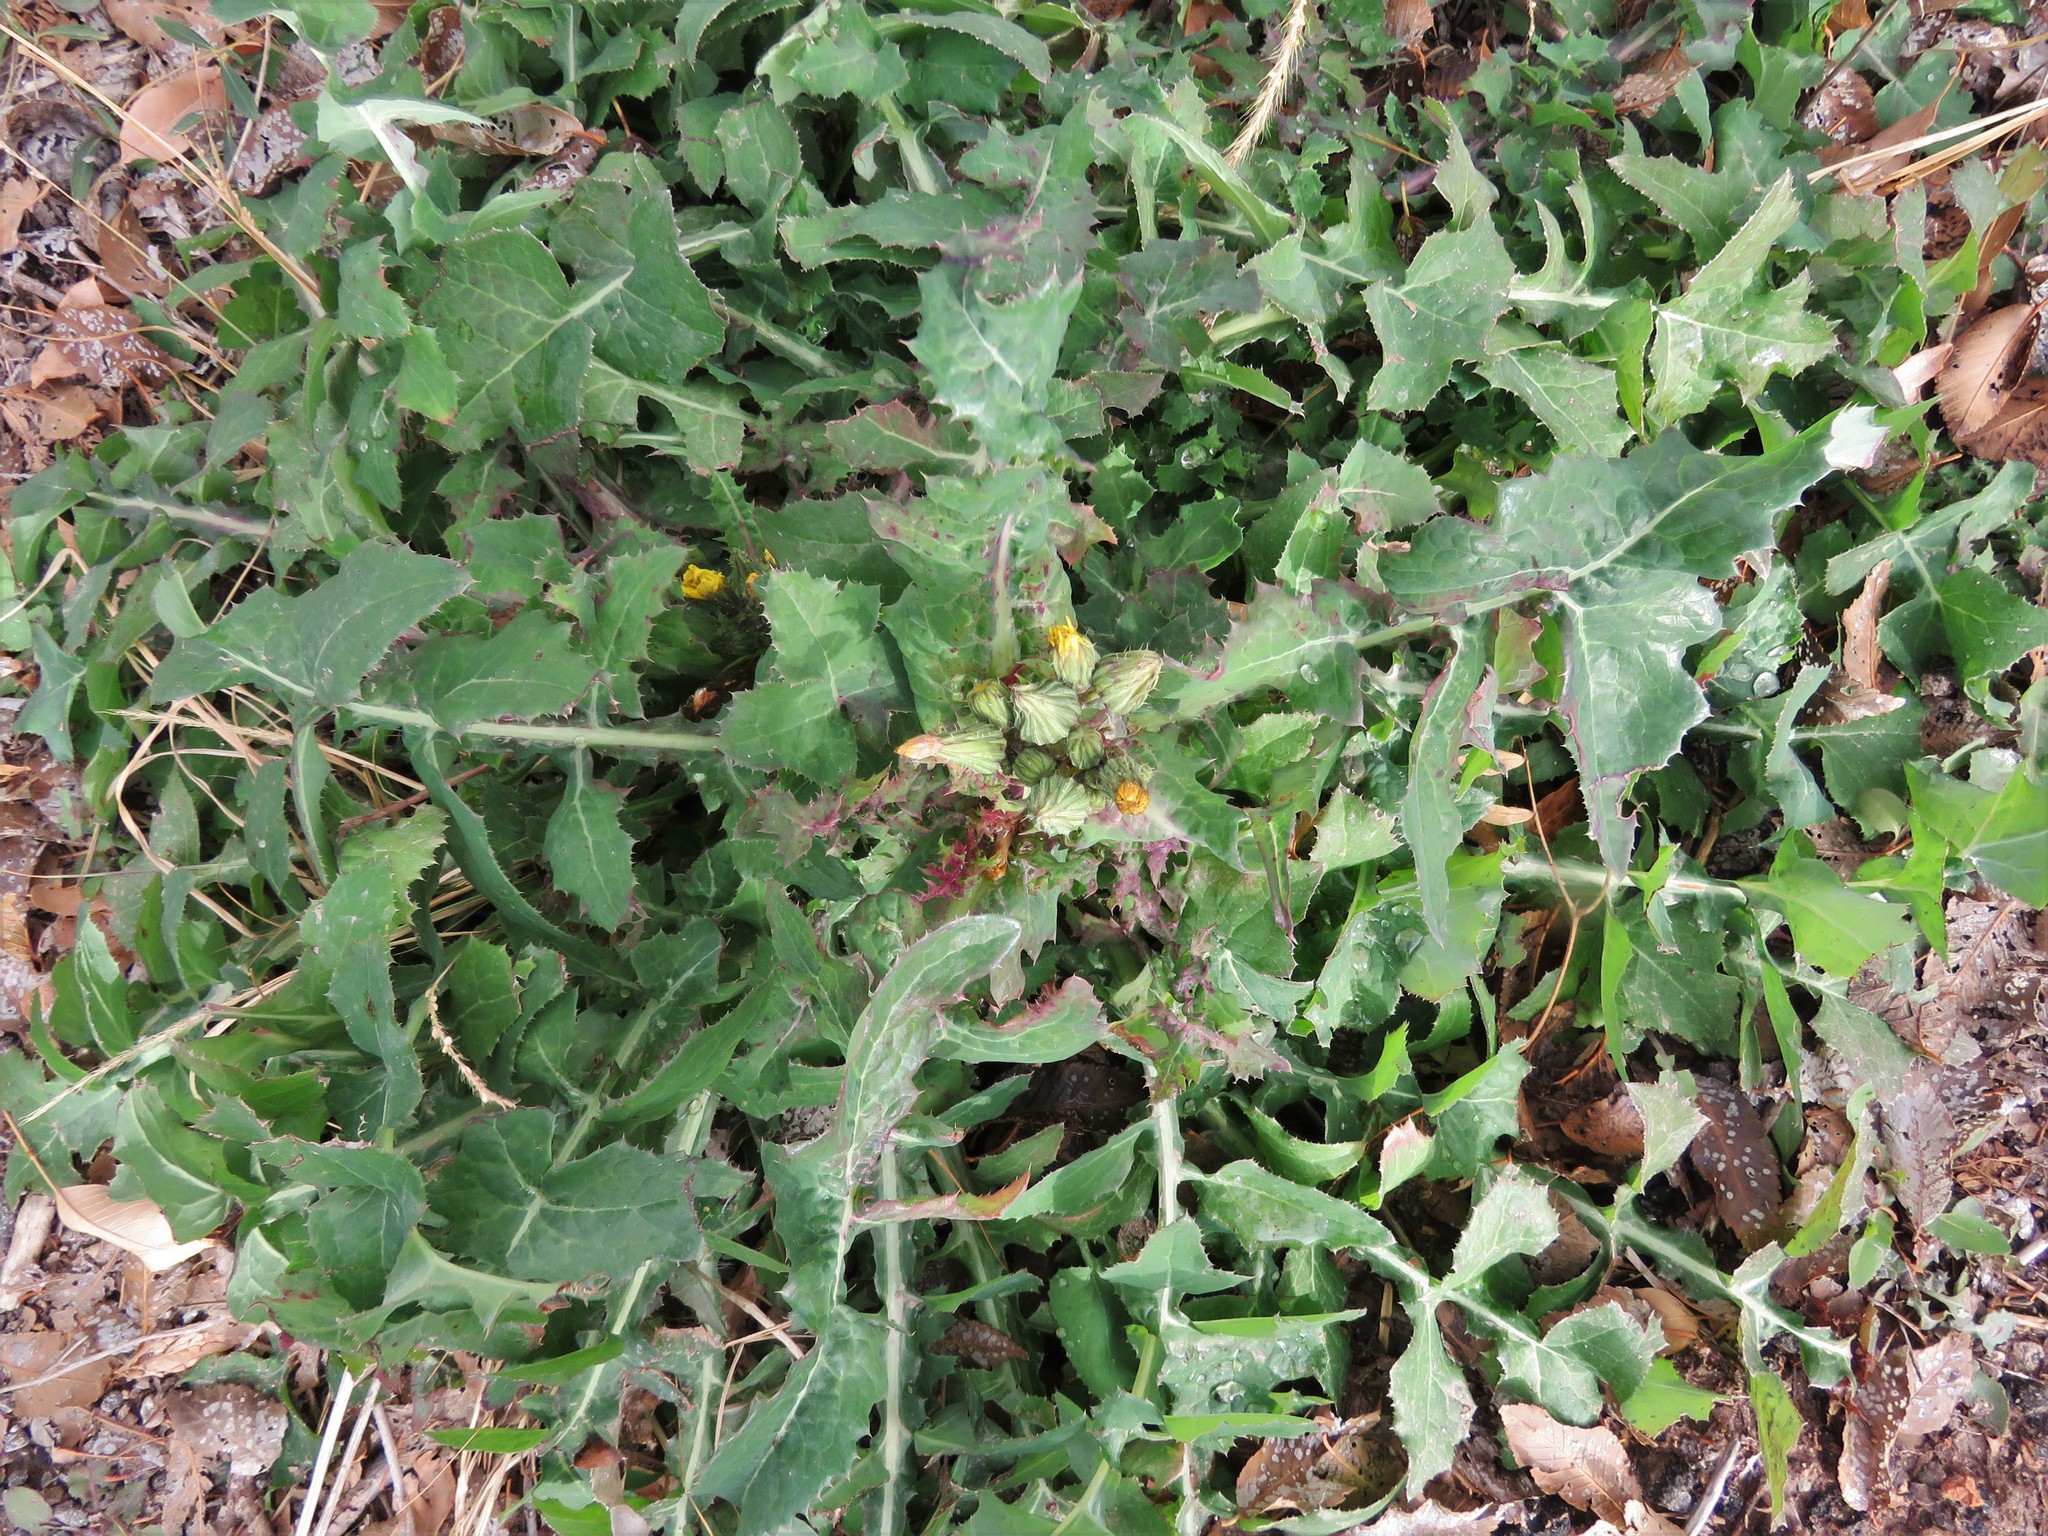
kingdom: Plantae
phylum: Tracheophyta
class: Magnoliopsida
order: Asterales
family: Asteraceae
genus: Sonchus
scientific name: Sonchus oleraceus
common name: Common sowthistle
